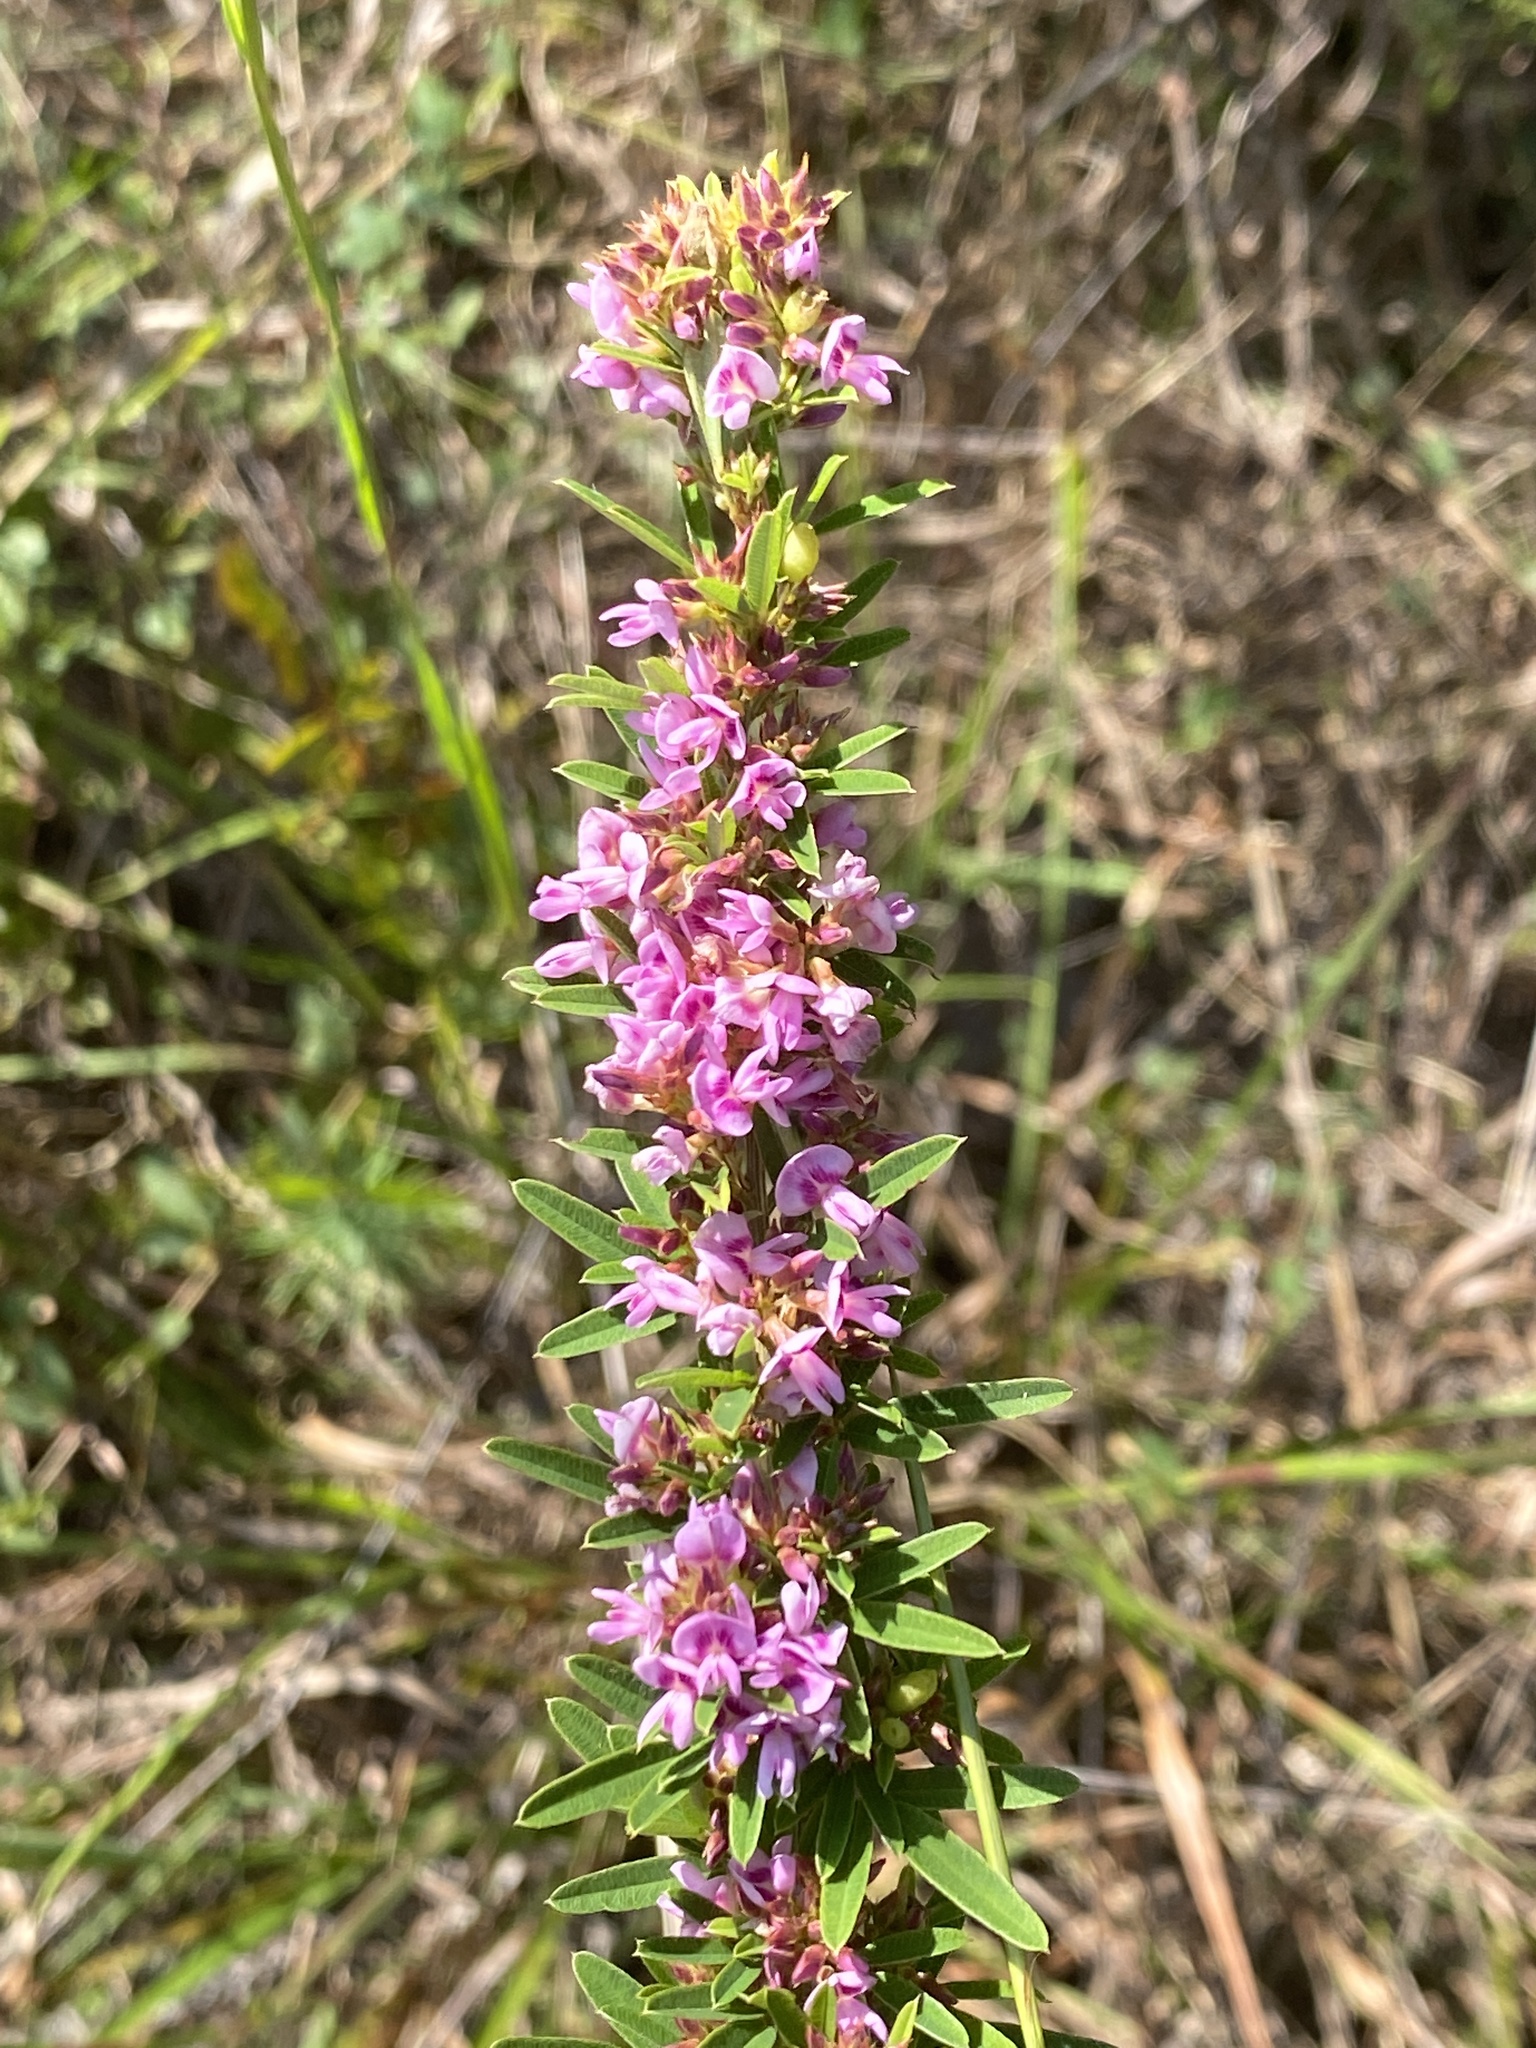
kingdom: Plantae
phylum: Tracheophyta
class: Magnoliopsida
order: Fabales
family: Fabaceae
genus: Lespedeza
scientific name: Lespedeza virginica
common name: Slender bush-clover
